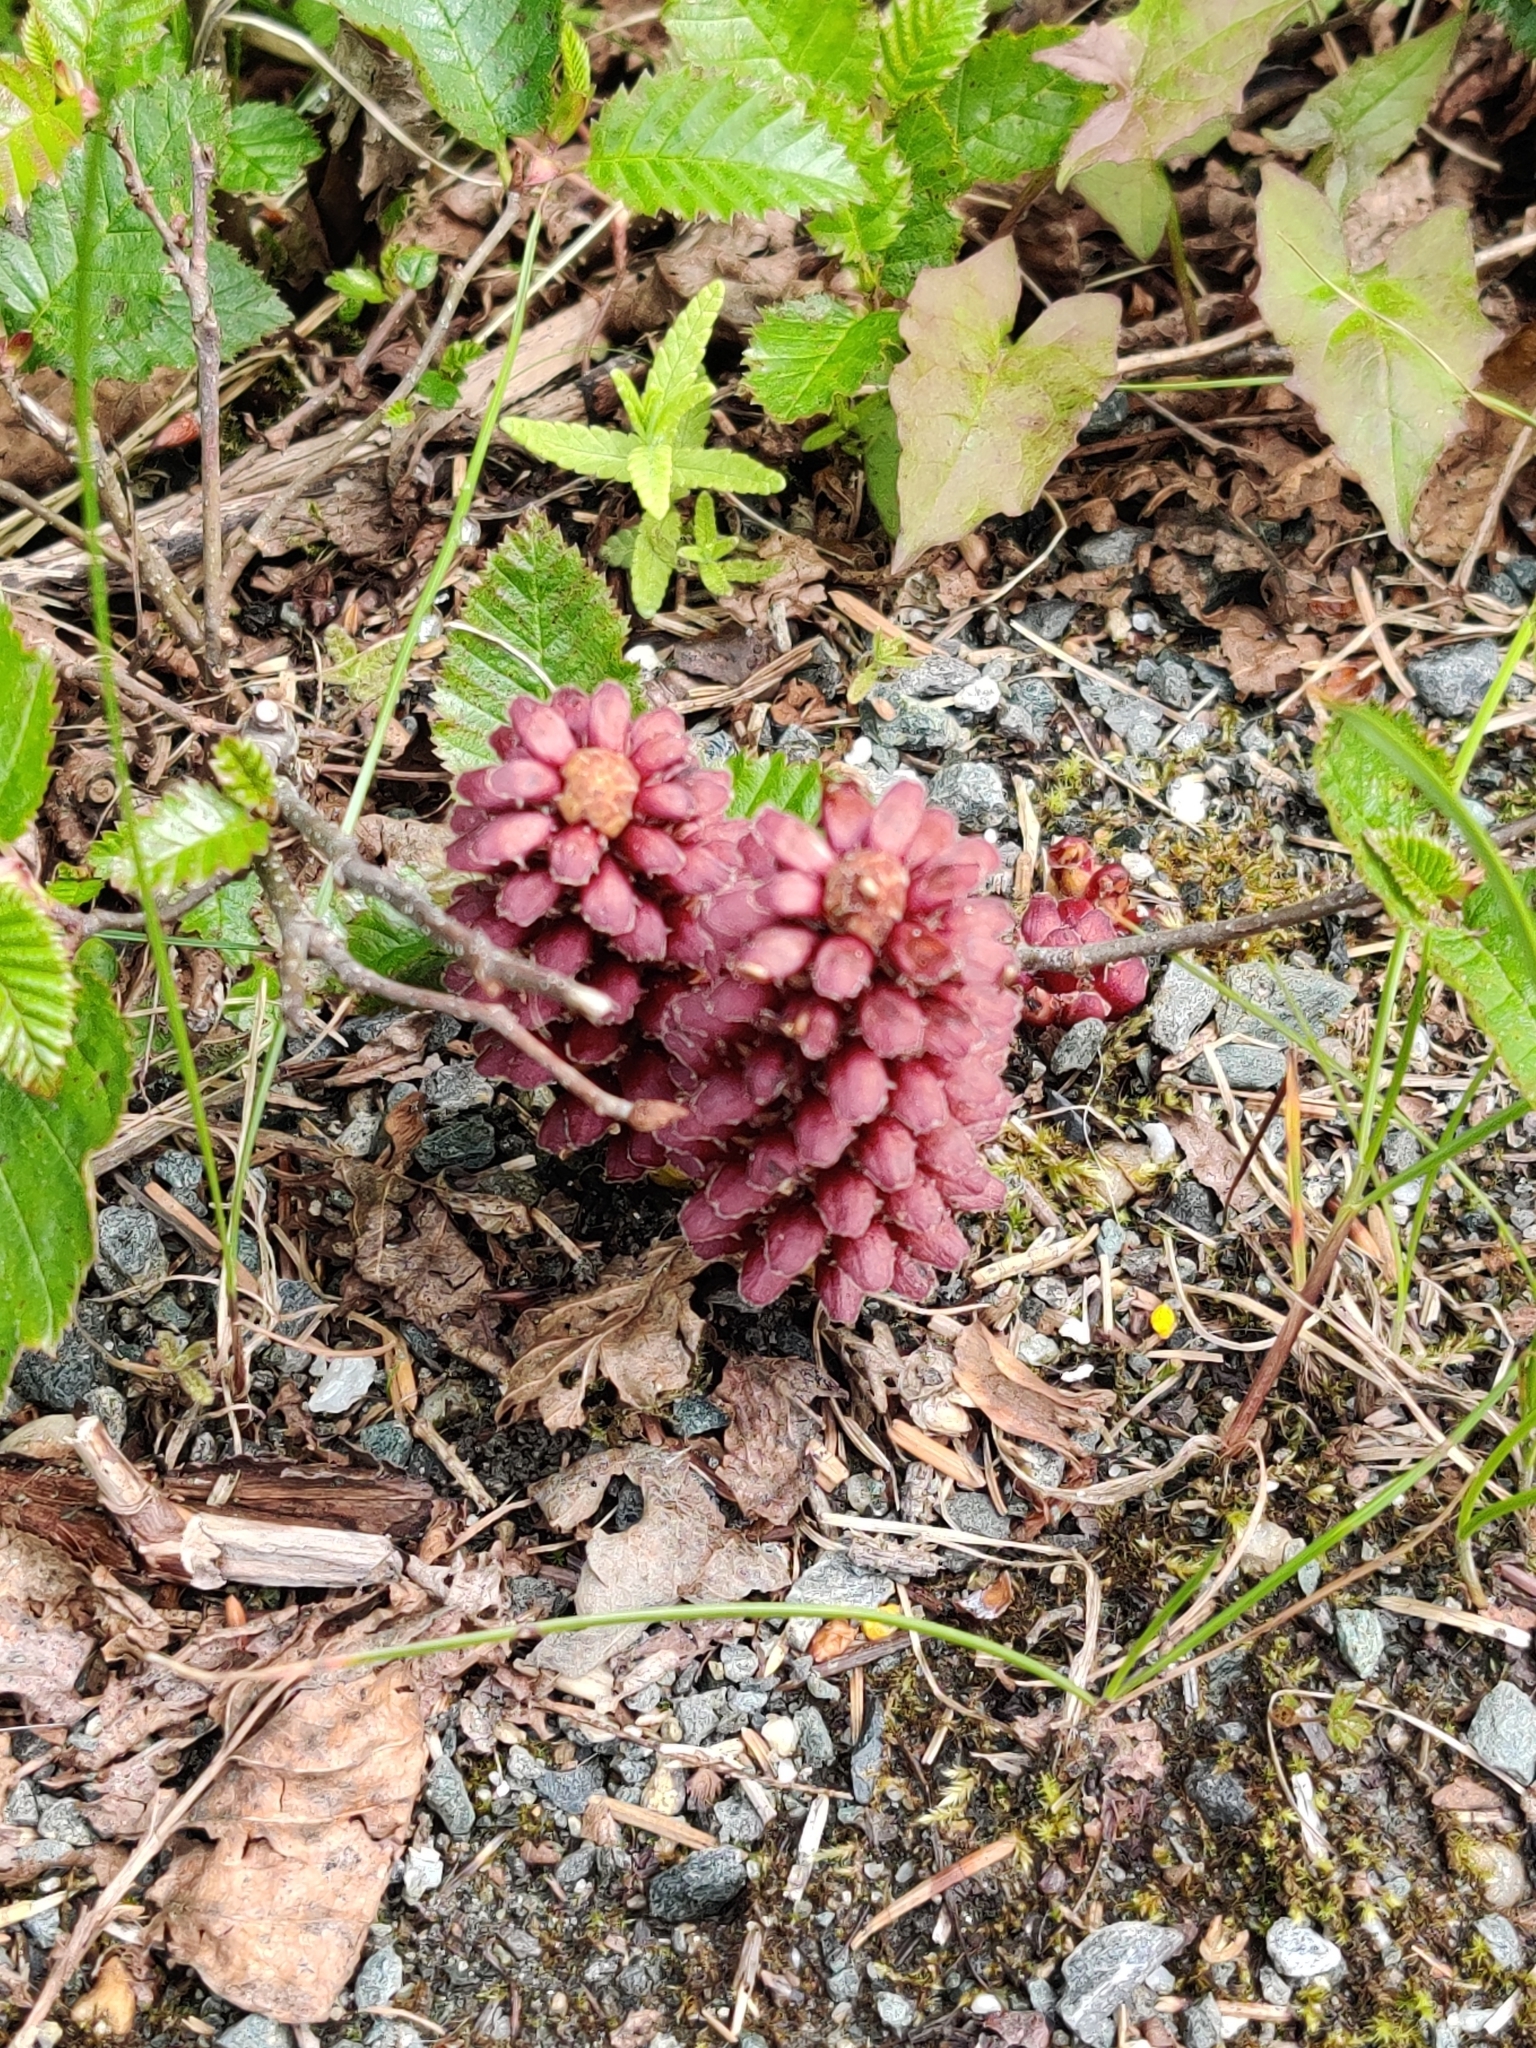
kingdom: Plantae
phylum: Tracheophyta
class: Magnoliopsida
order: Lamiales
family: Orobanchaceae
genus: Boschniakia
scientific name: Boschniakia rossica
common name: Poque
